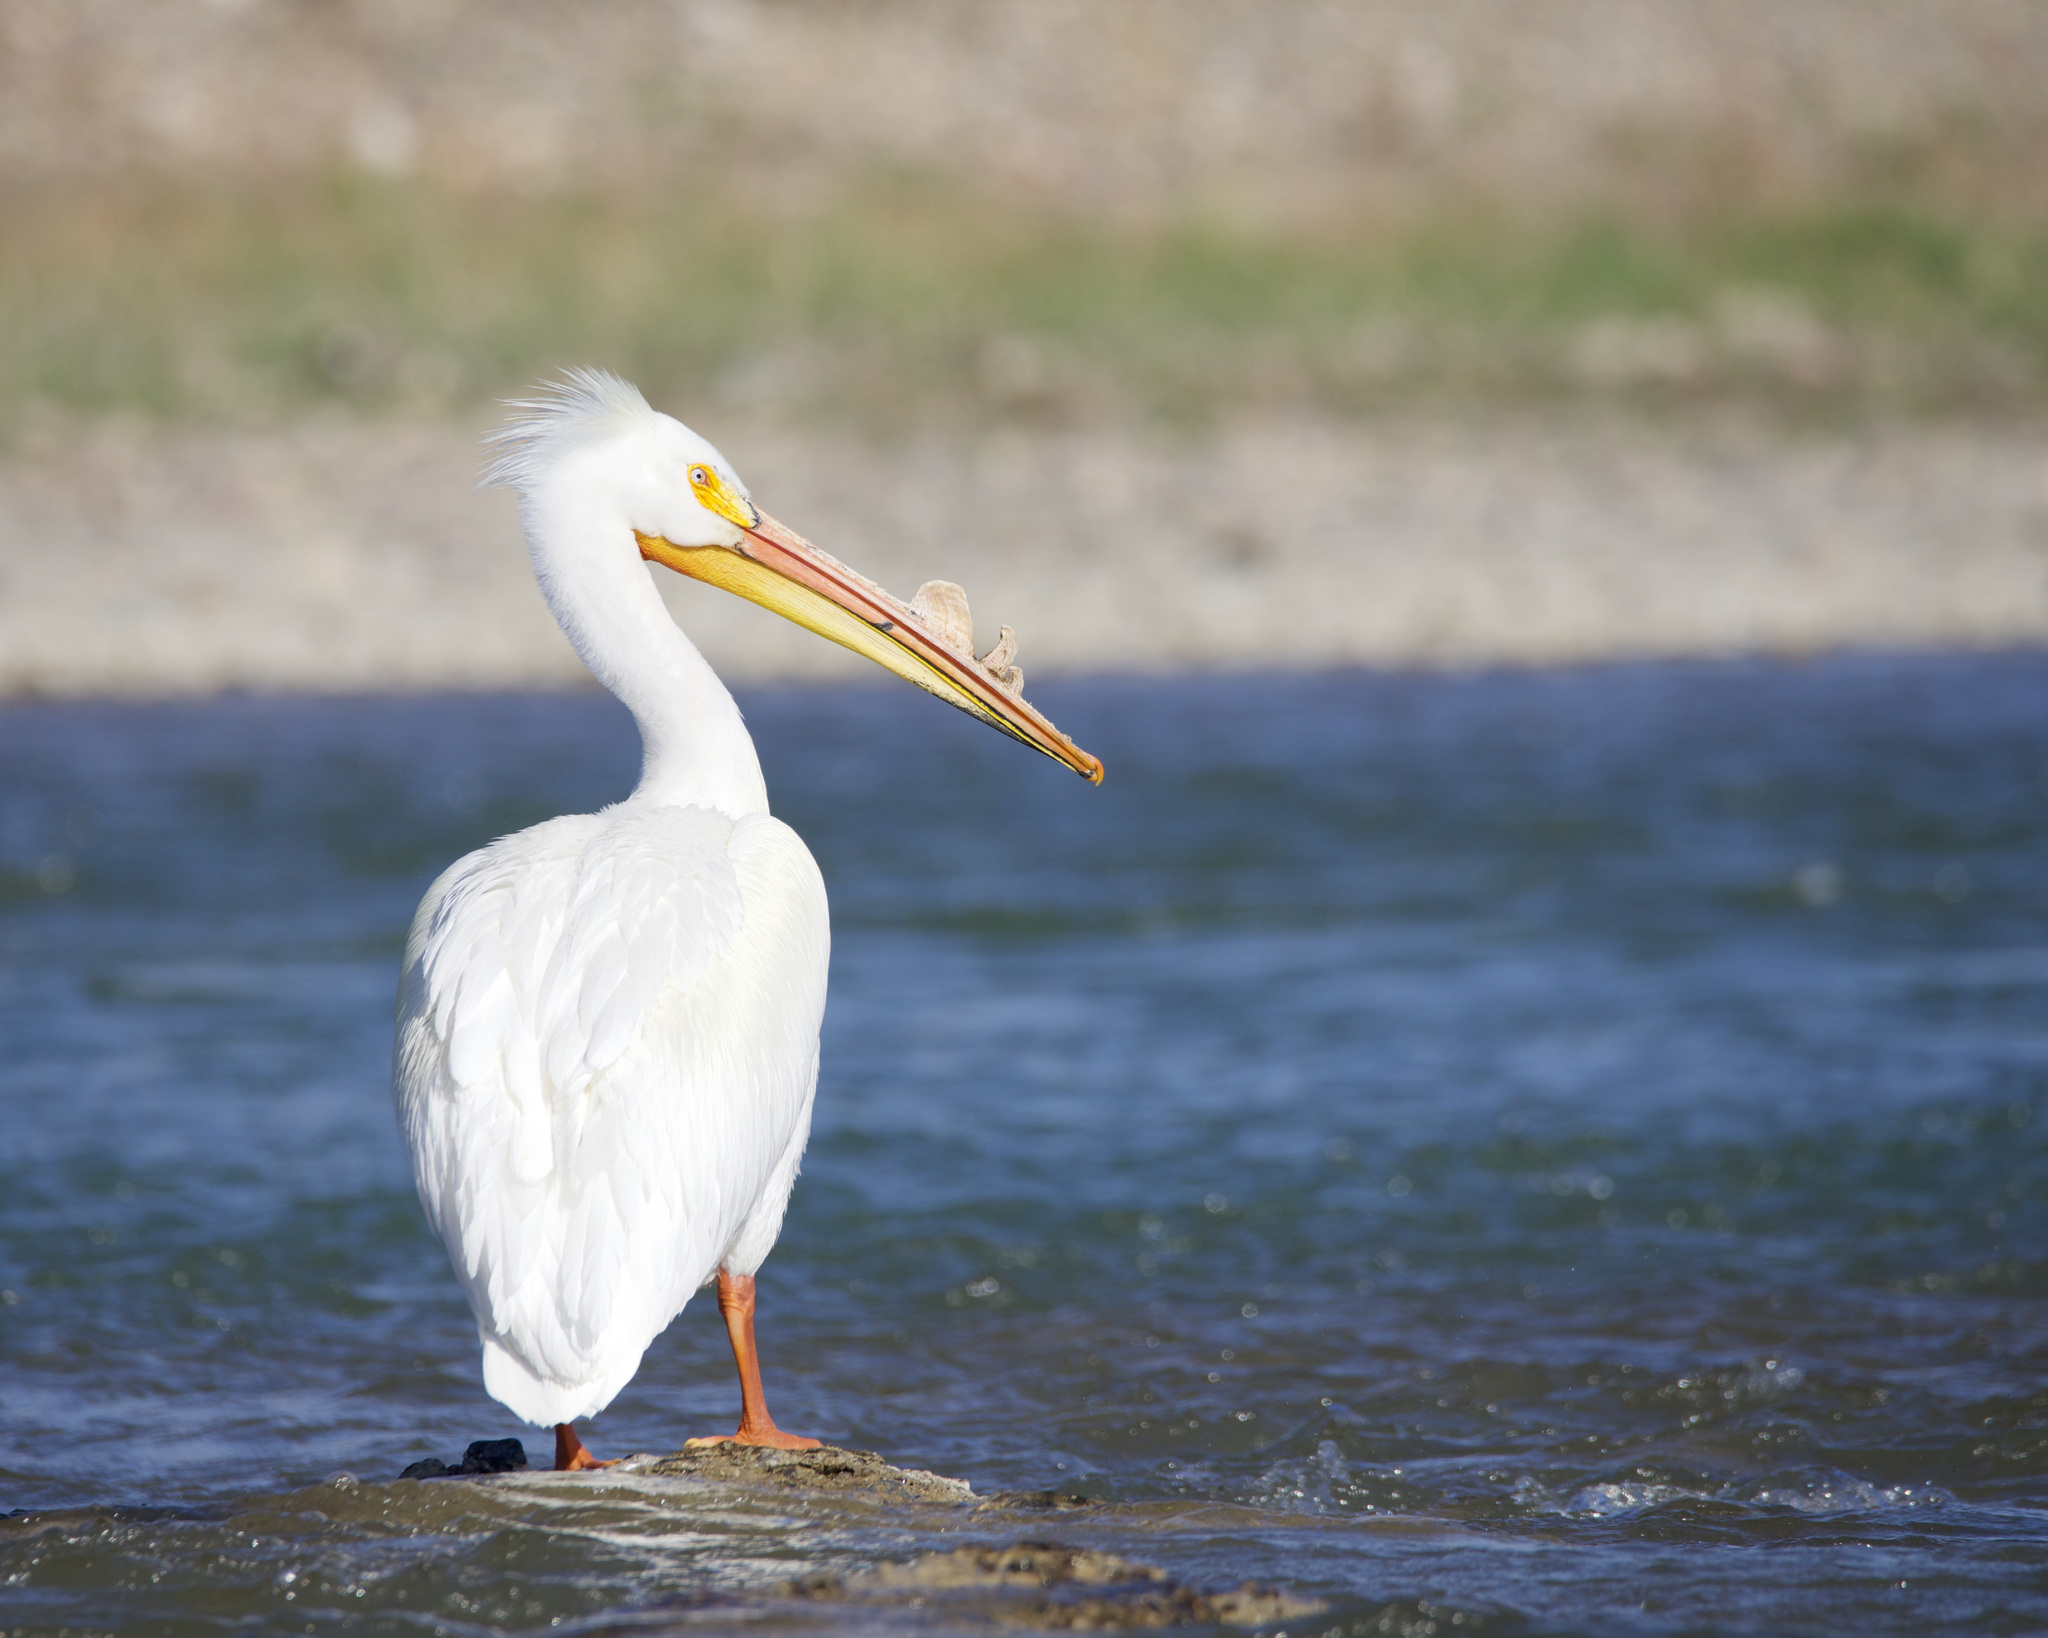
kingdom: Animalia
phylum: Chordata
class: Aves
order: Pelecaniformes
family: Pelecanidae
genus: Pelecanus
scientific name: Pelecanus erythrorhynchos
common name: American white pelican
